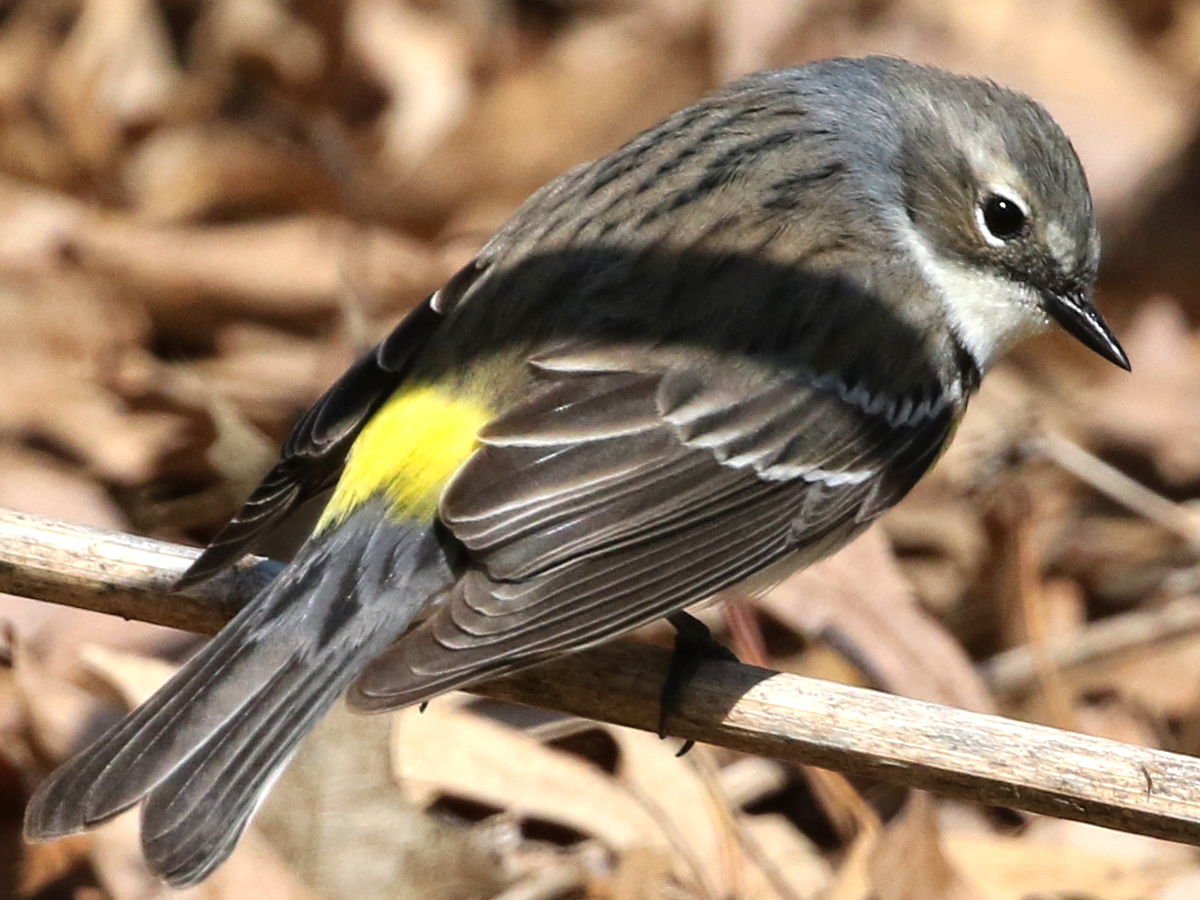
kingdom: Animalia
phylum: Chordata
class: Aves
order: Passeriformes
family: Parulidae
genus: Setophaga
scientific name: Setophaga coronata
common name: Myrtle warbler
